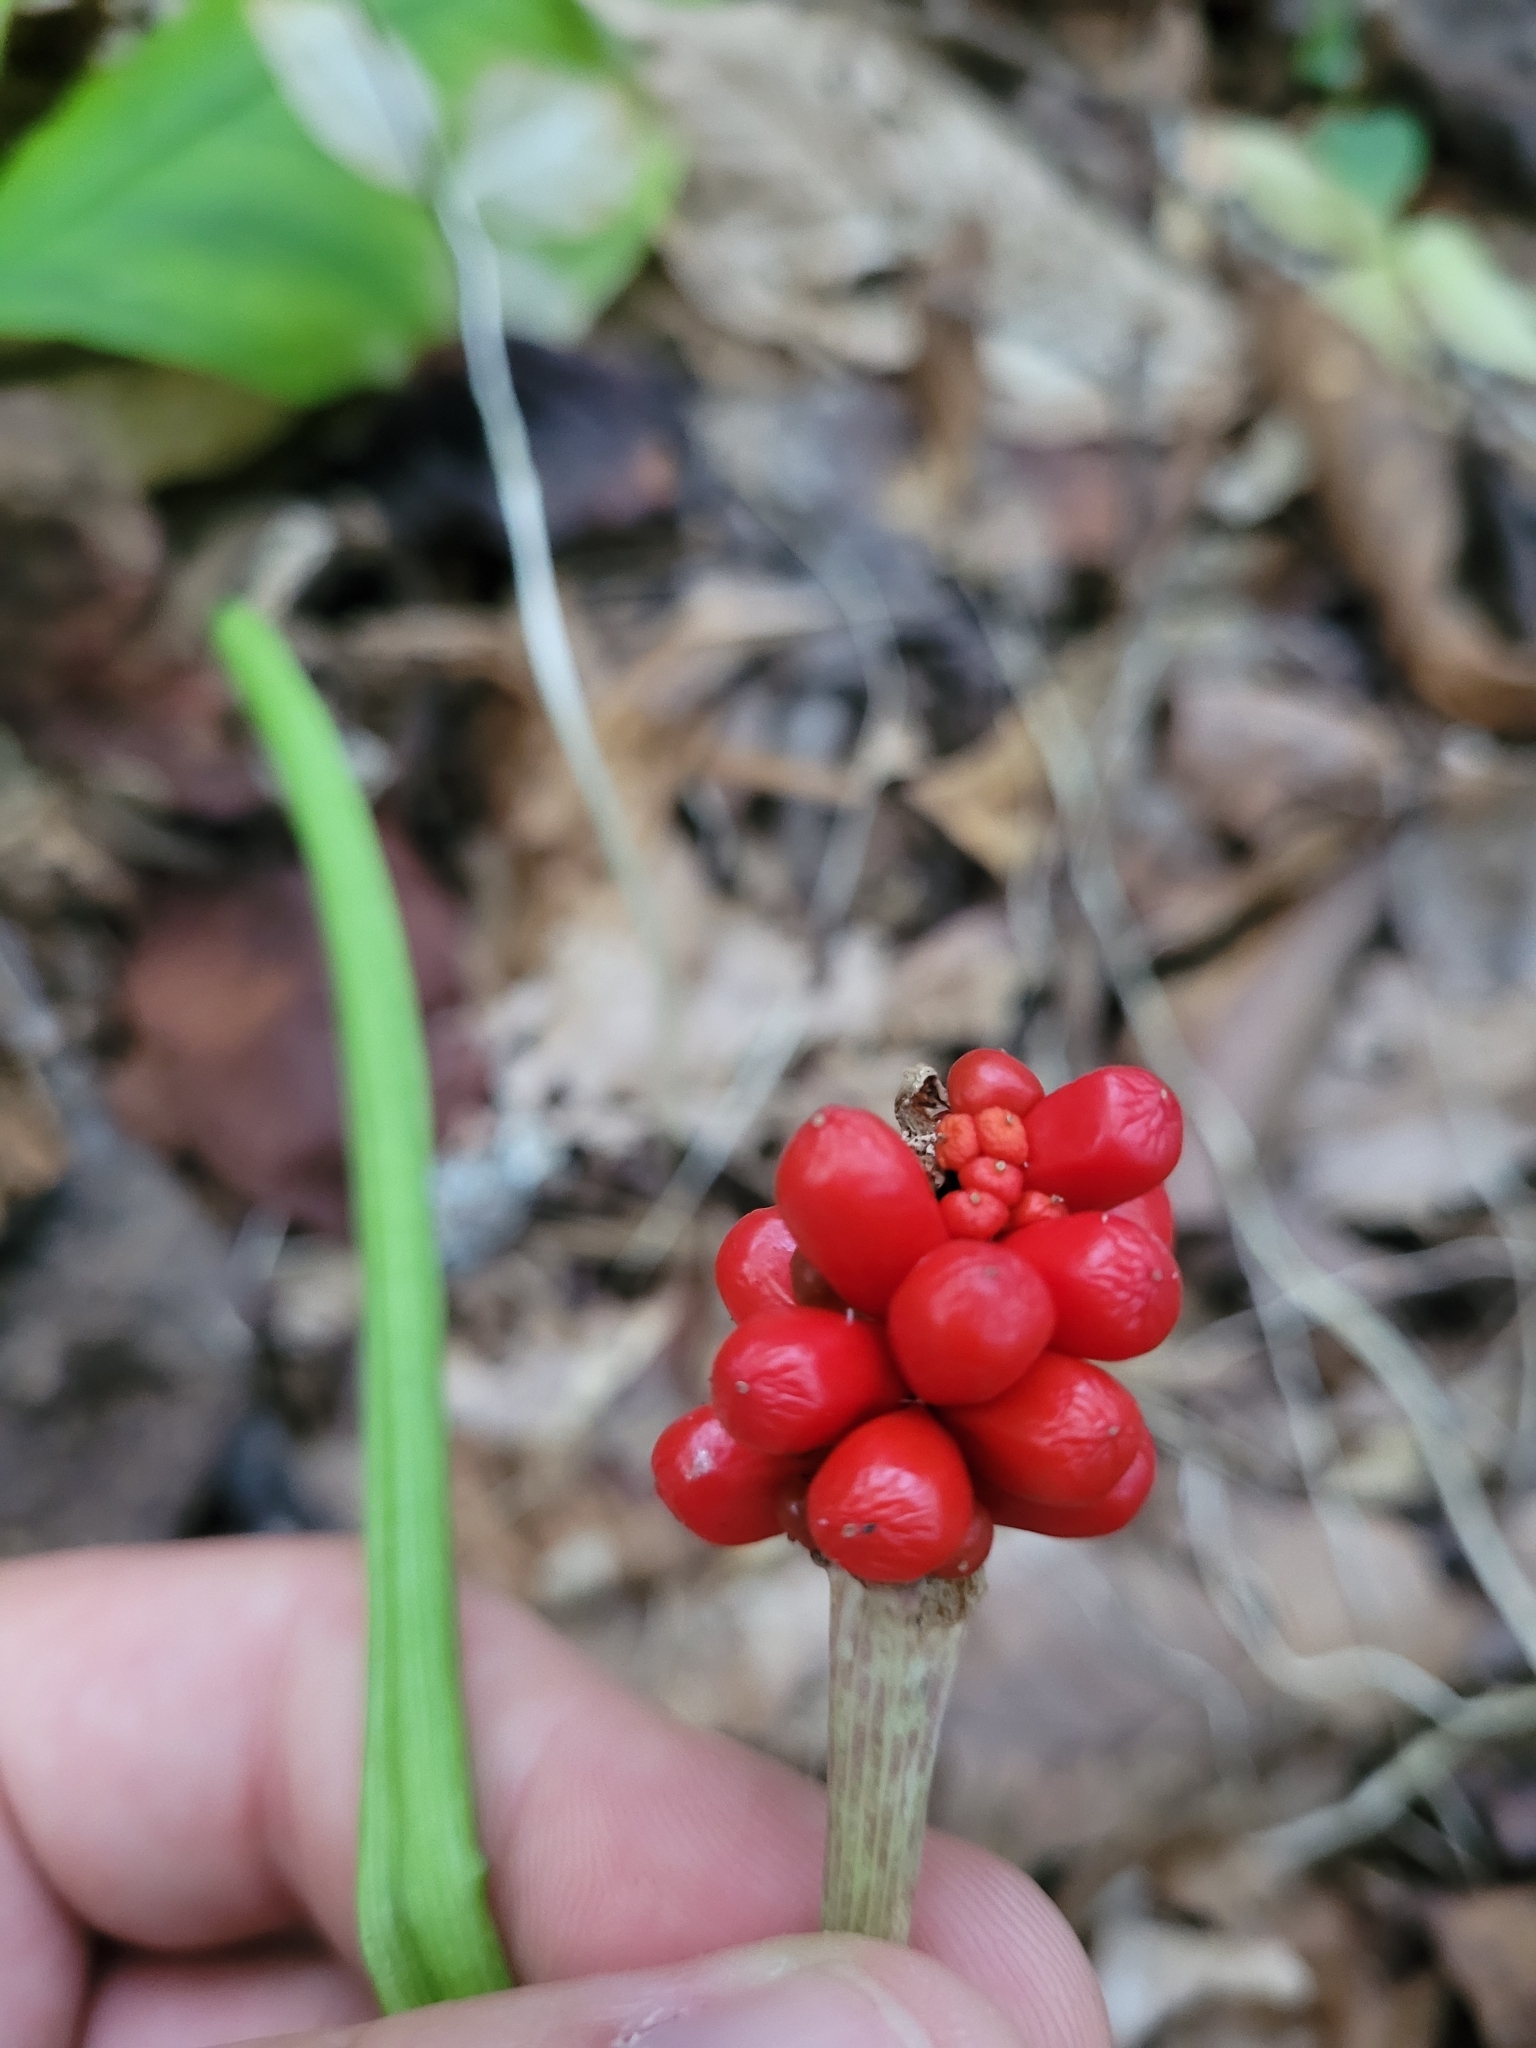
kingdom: Plantae
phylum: Tracheophyta
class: Liliopsida
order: Alismatales
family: Araceae
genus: Arisaema
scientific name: Arisaema triphyllum
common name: Jack-in-the-pulpit
